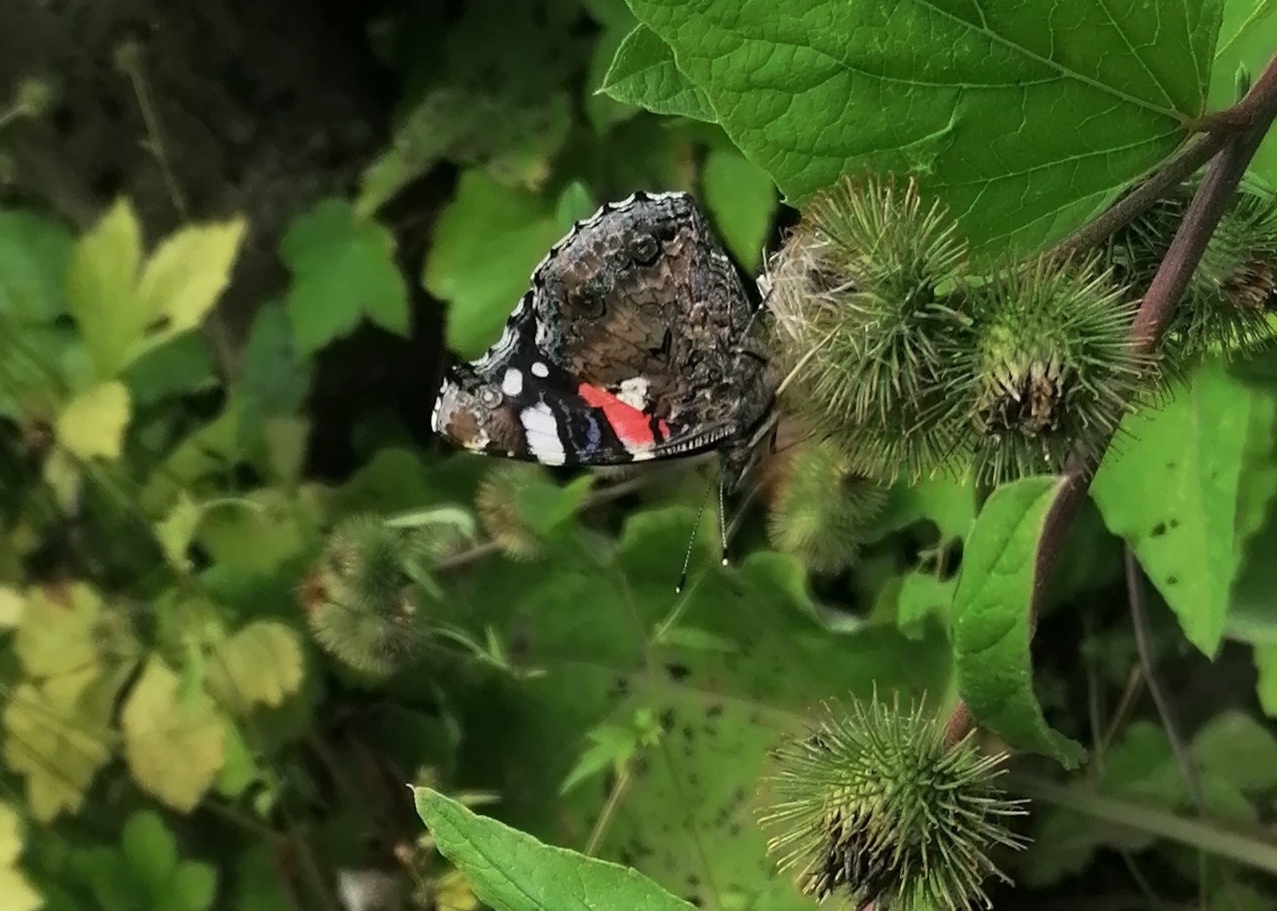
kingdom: Animalia
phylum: Arthropoda
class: Insecta
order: Lepidoptera
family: Nymphalidae
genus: Vanessa
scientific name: Vanessa atalanta
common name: Red admiral
